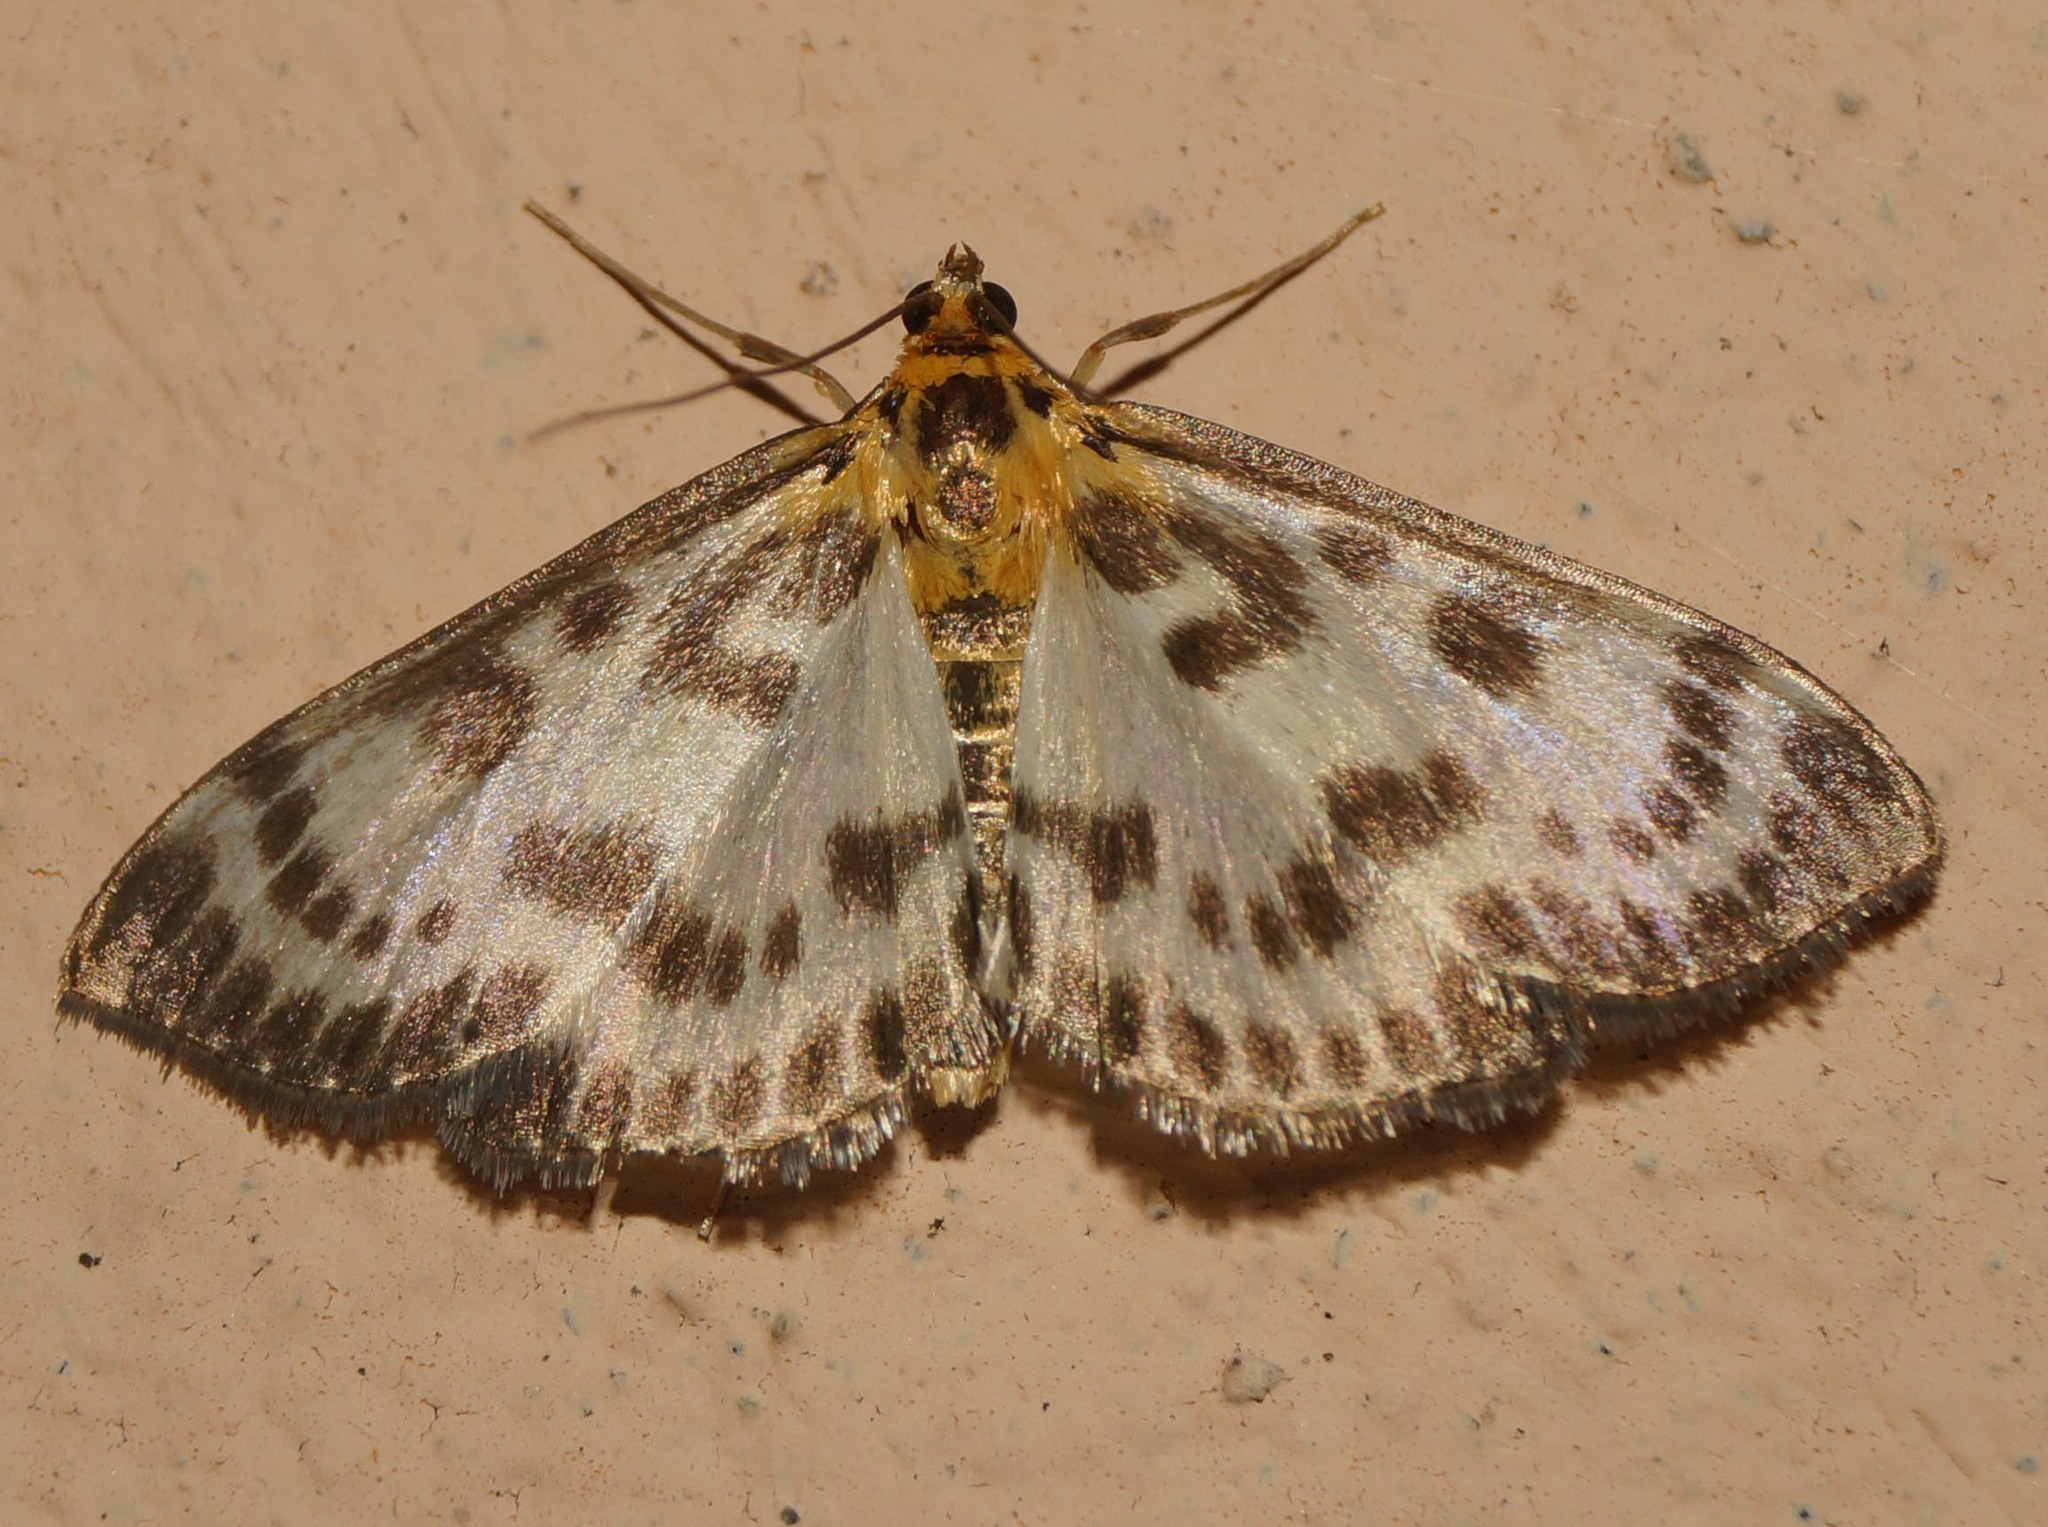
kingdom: Animalia
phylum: Arthropoda
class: Insecta
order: Lepidoptera
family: Crambidae
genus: Anania
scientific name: Anania hortulata
